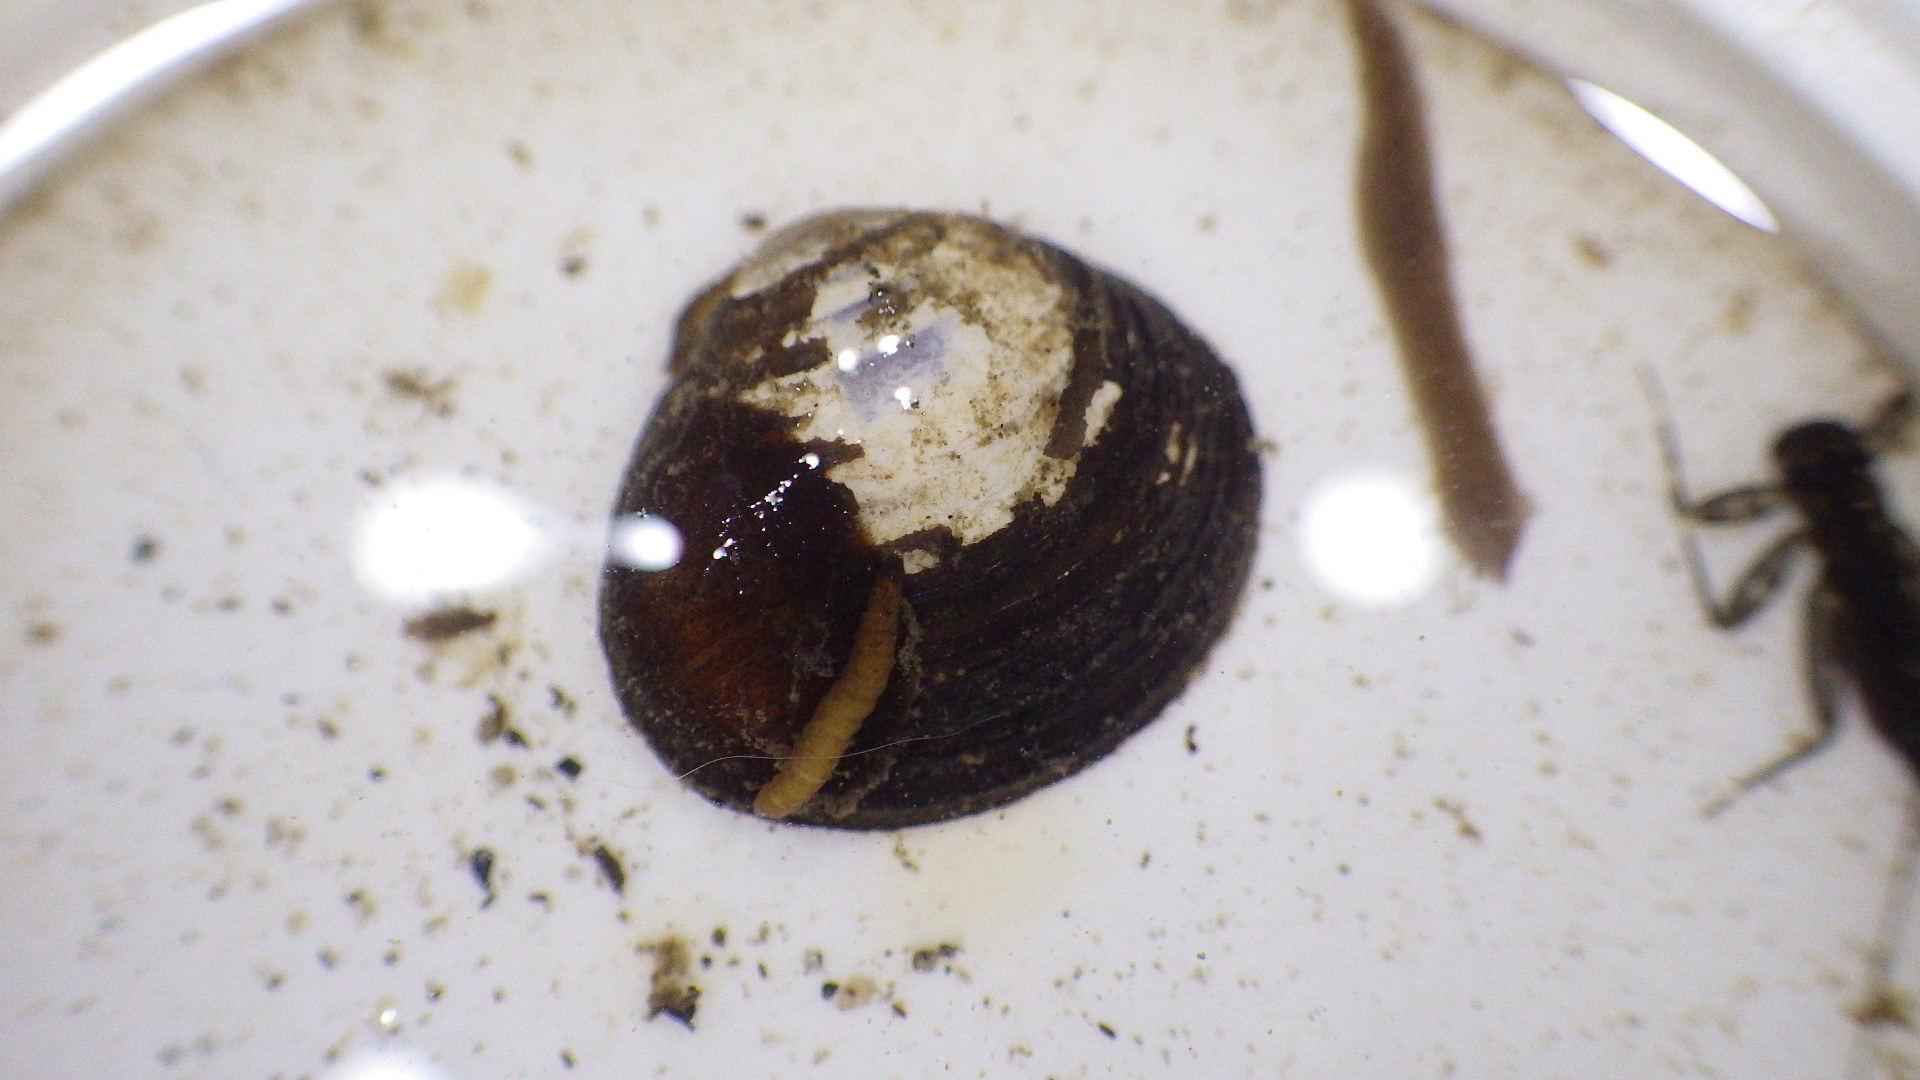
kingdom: Animalia
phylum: Mollusca
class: Bivalvia
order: Venerida
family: Cyrenidae
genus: Corbicula
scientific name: Corbicula fluminea
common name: Asian clam
